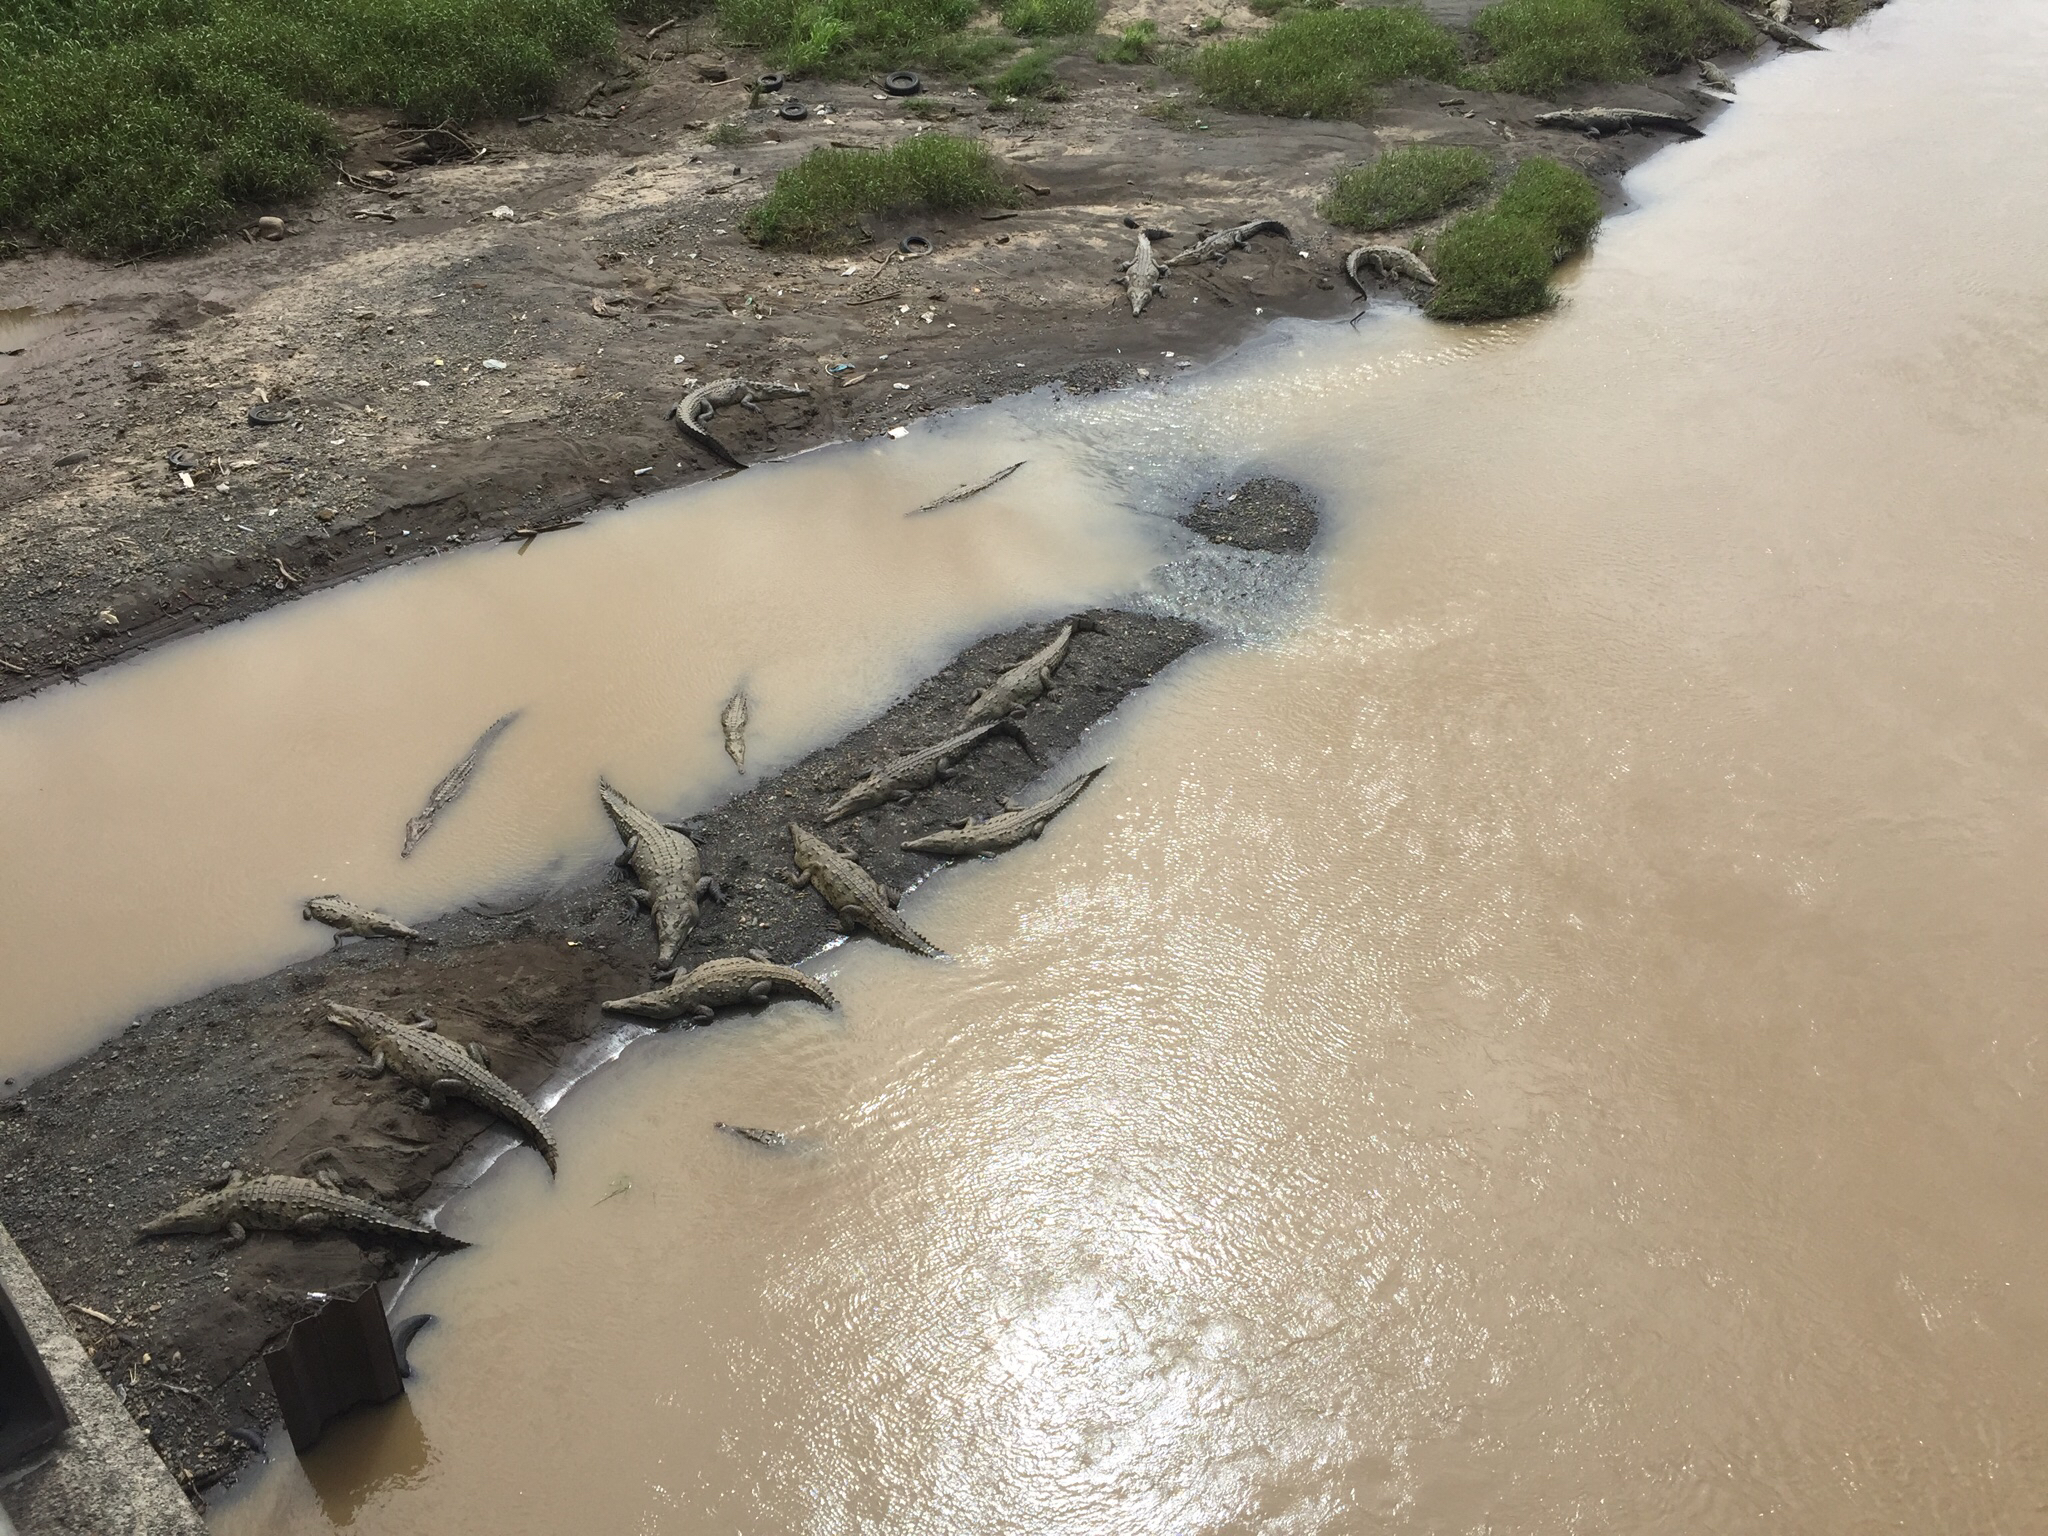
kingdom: Animalia
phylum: Chordata
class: Crocodylia
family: Crocodylidae
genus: Crocodylus
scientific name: Crocodylus acutus
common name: American crocodile
